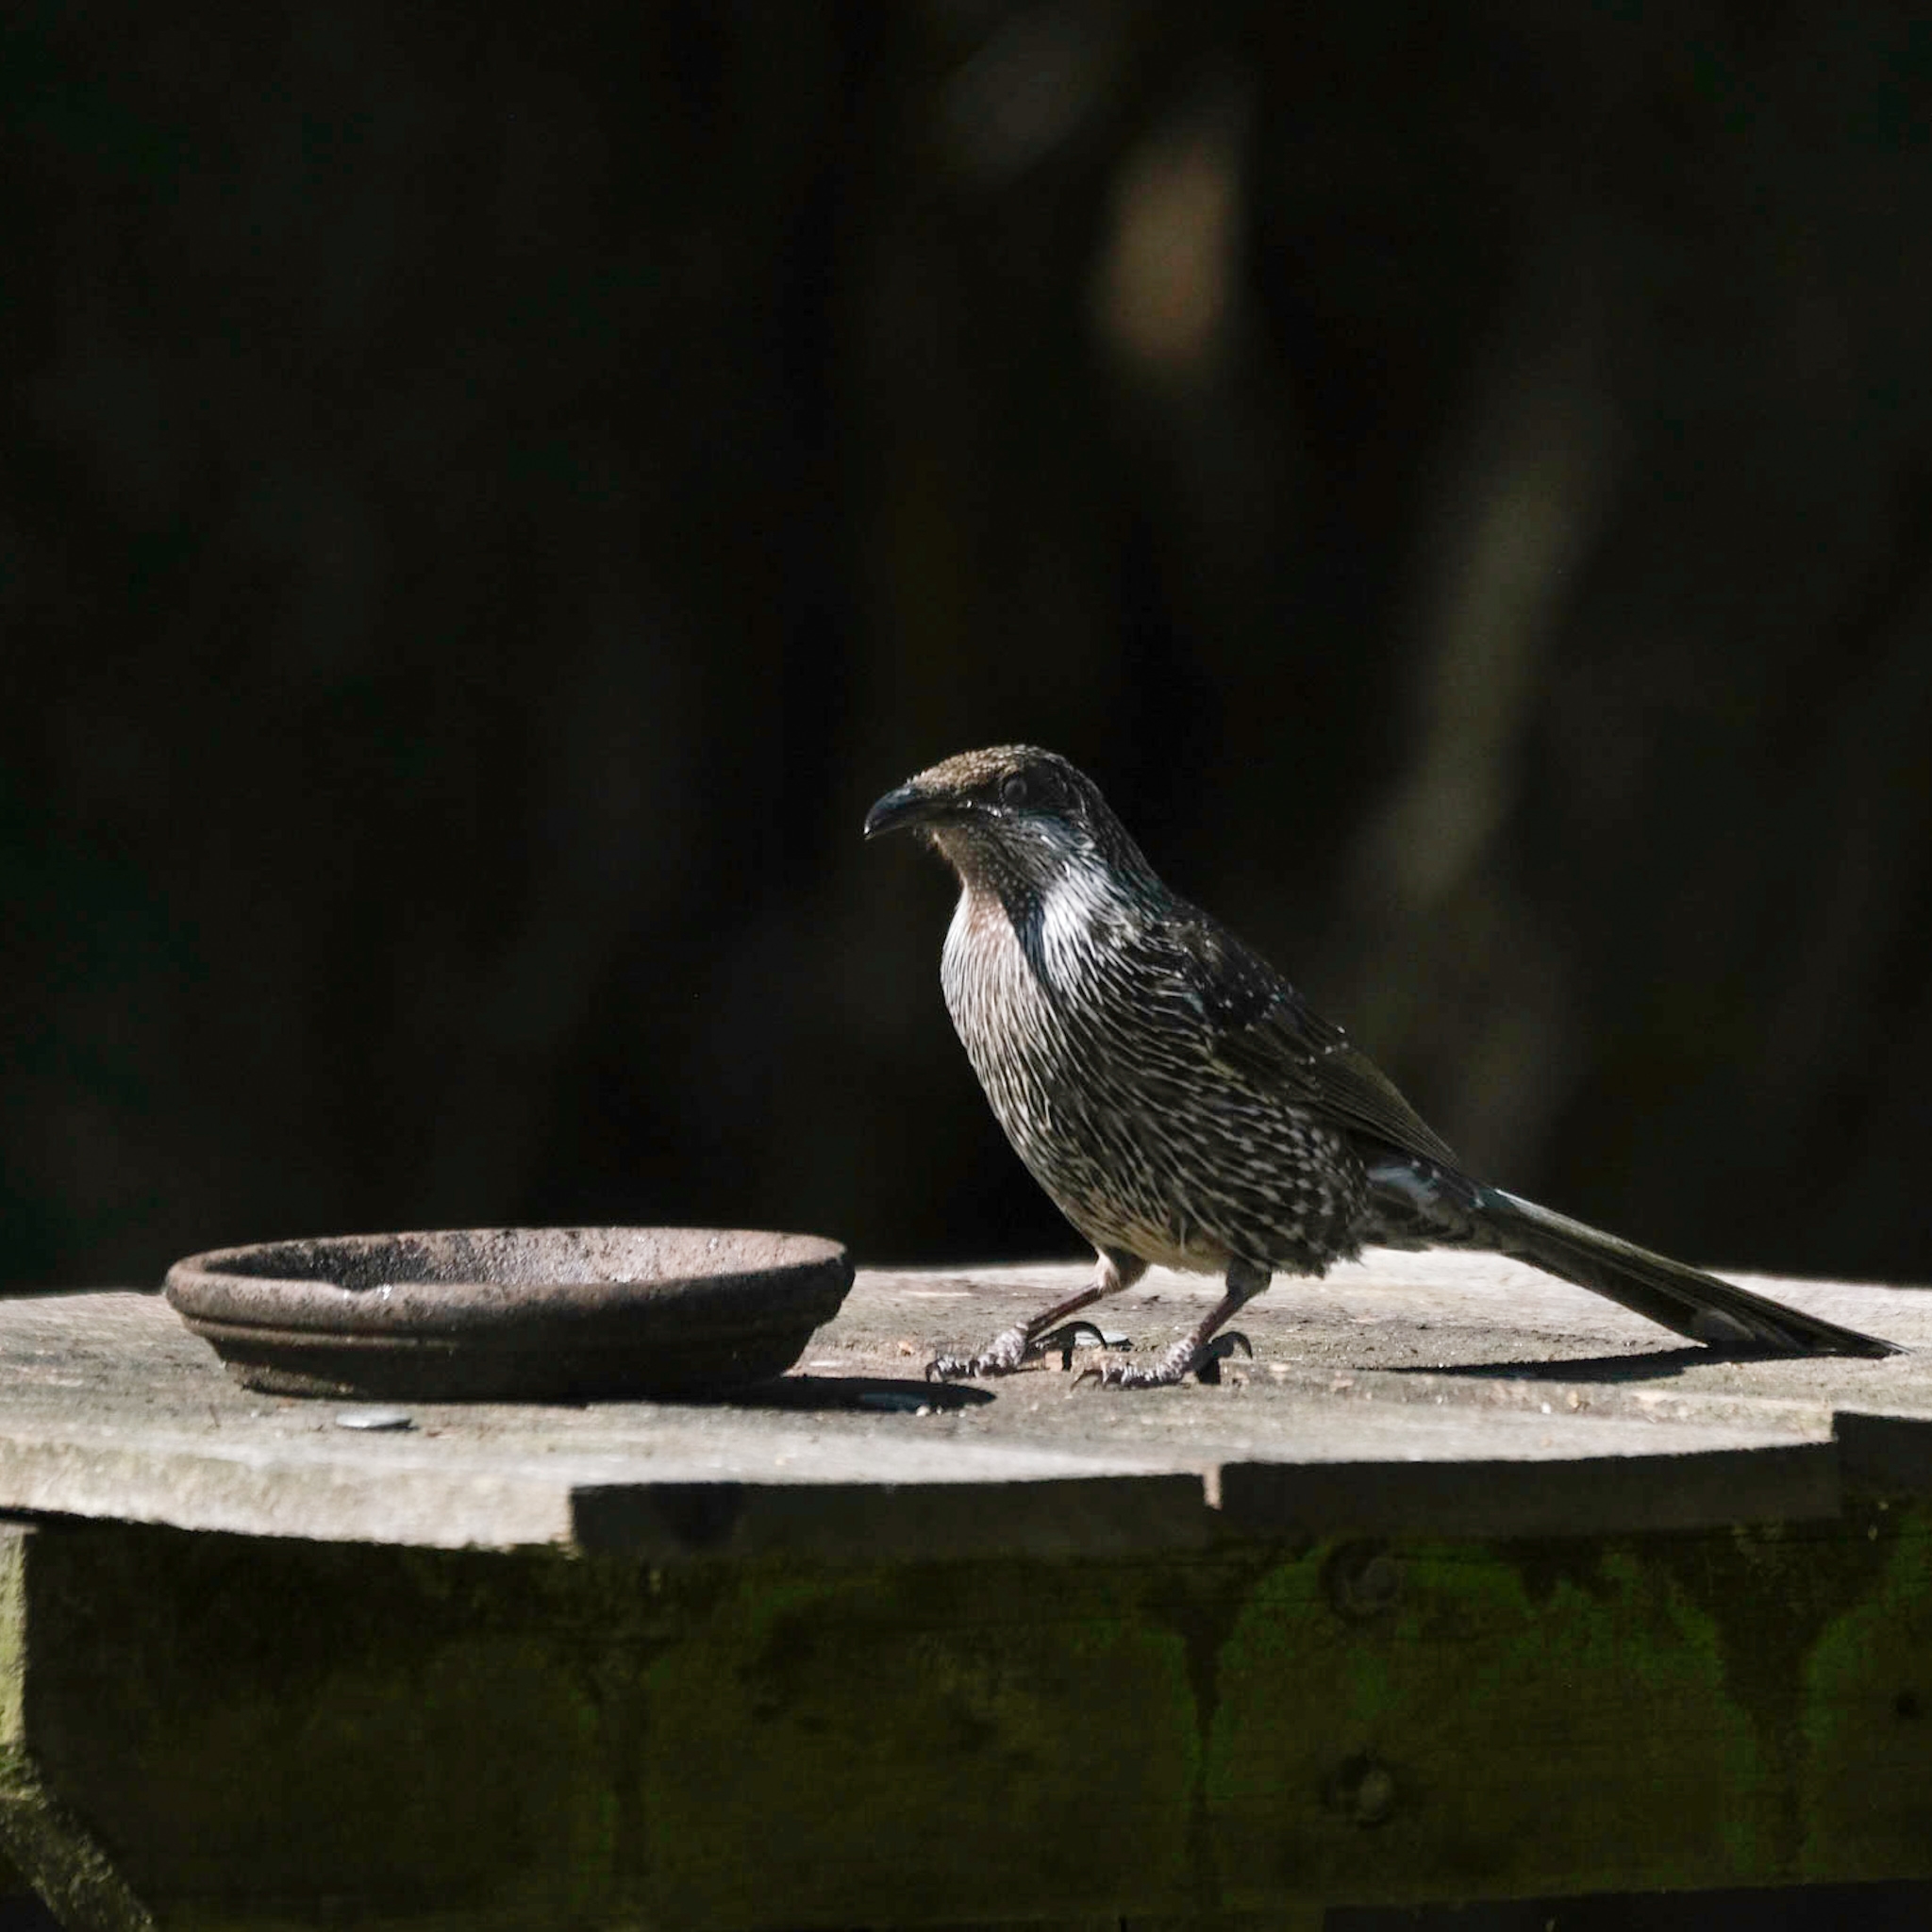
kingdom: Animalia
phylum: Chordata
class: Aves
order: Passeriformes
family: Meliphagidae
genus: Anthochaera
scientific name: Anthochaera chrysoptera
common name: Little wattlebird
